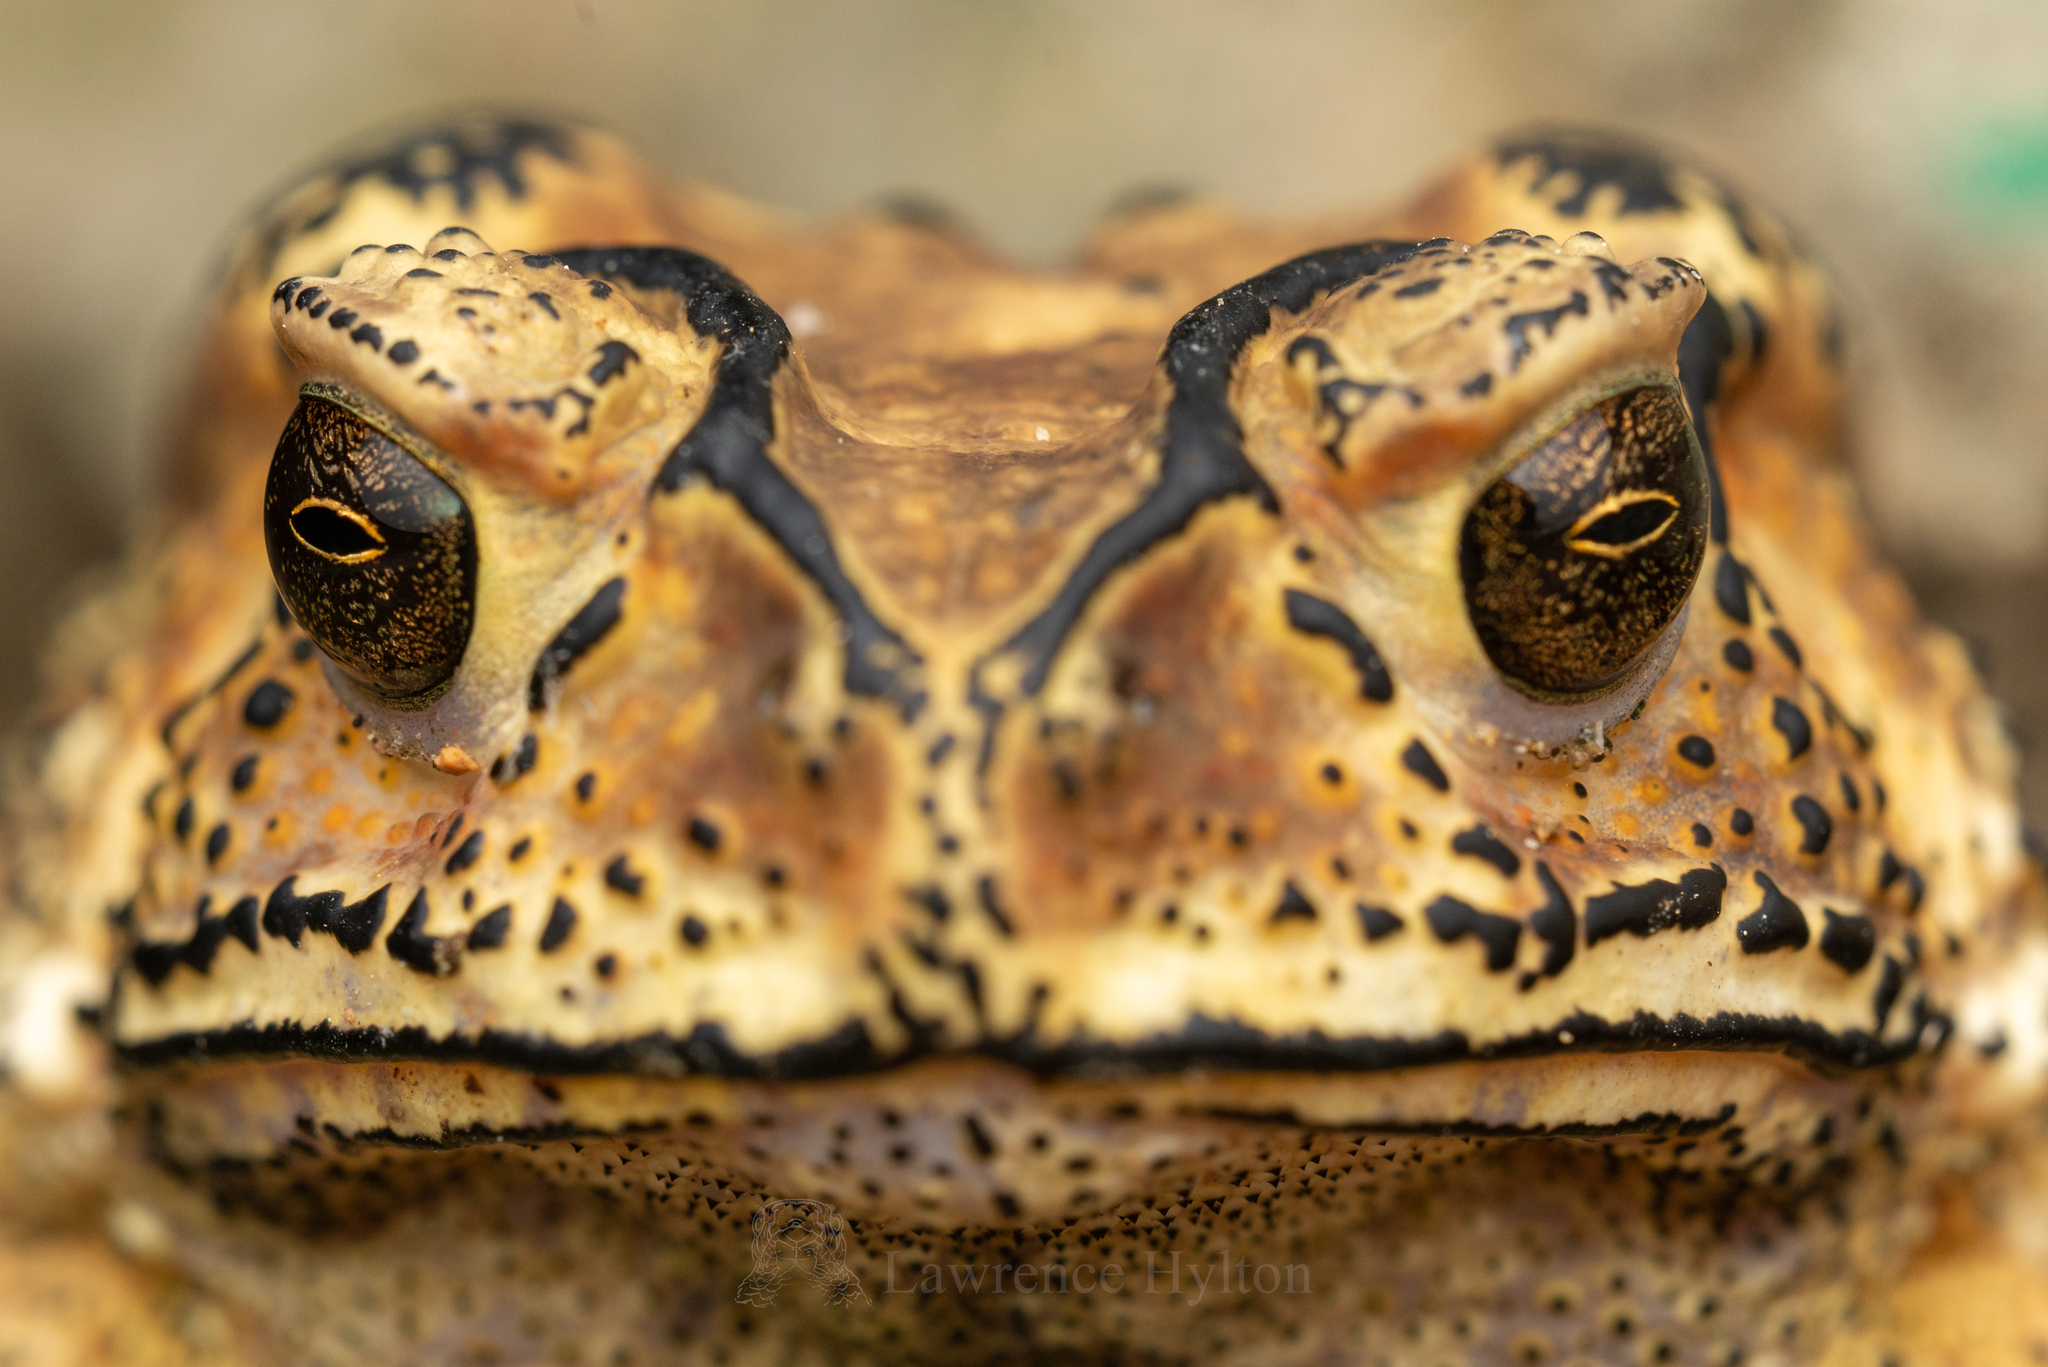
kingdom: Animalia
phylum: Chordata
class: Amphibia
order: Anura
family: Bufonidae
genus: Duttaphrynus
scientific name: Duttaphrynus melanostictus
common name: Common sunda toad
